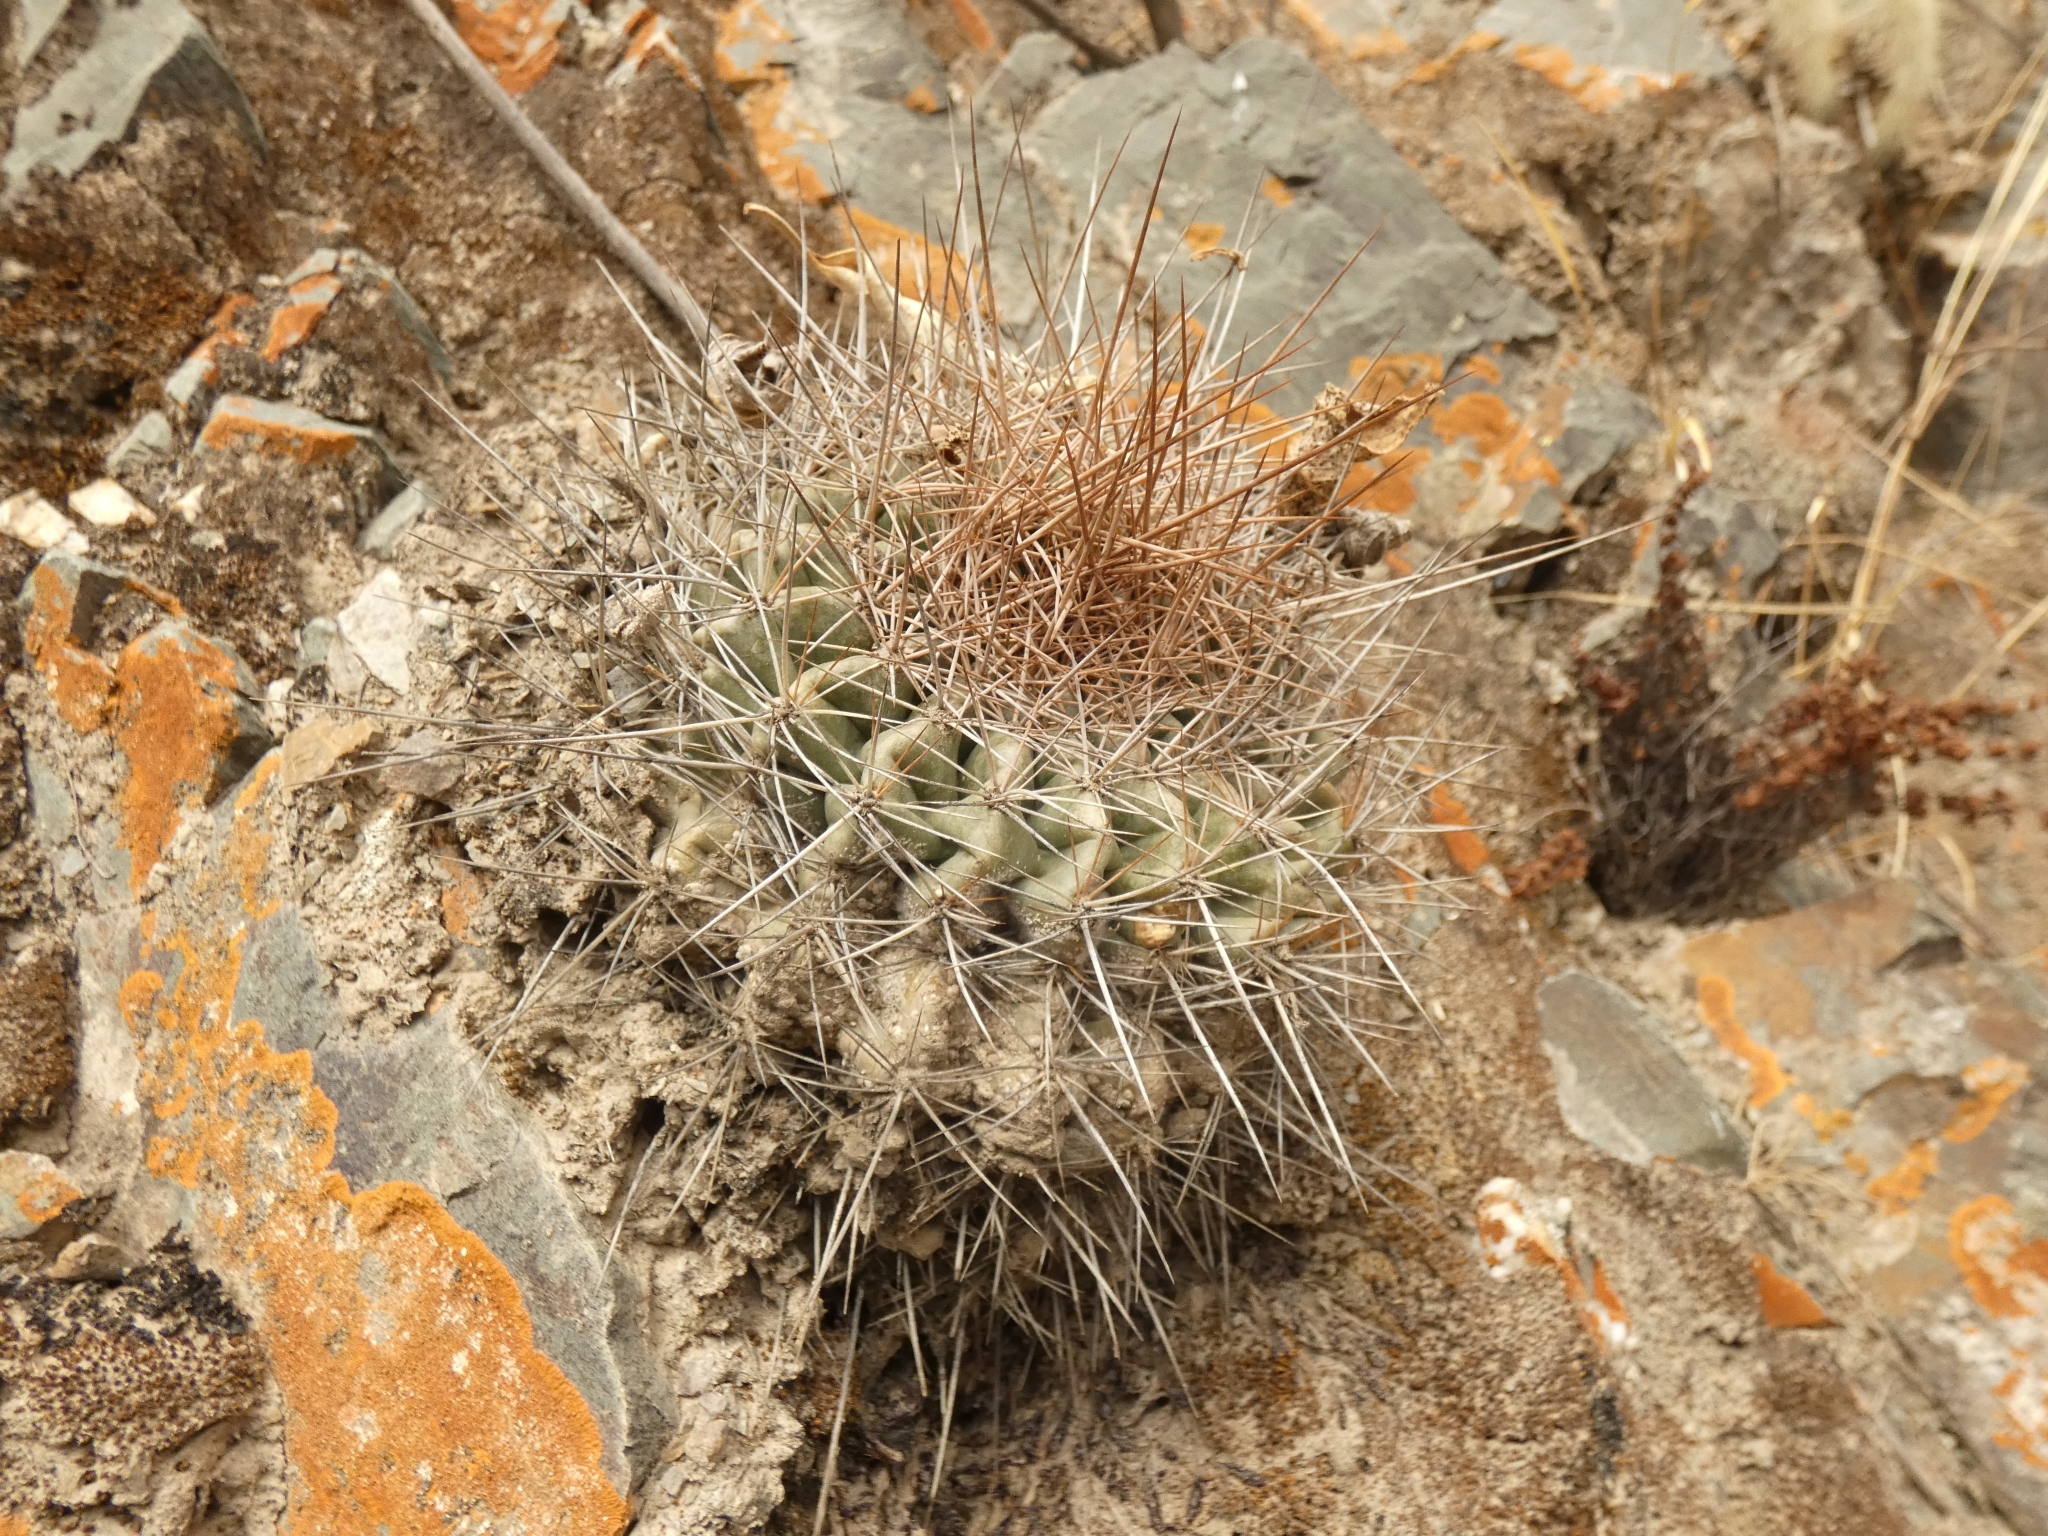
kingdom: Plantae
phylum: Tracheophyta
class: Magnoliopsida
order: Caryophyllales
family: Cactaceae
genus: Lobivia
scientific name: Lobivia mamillosa
